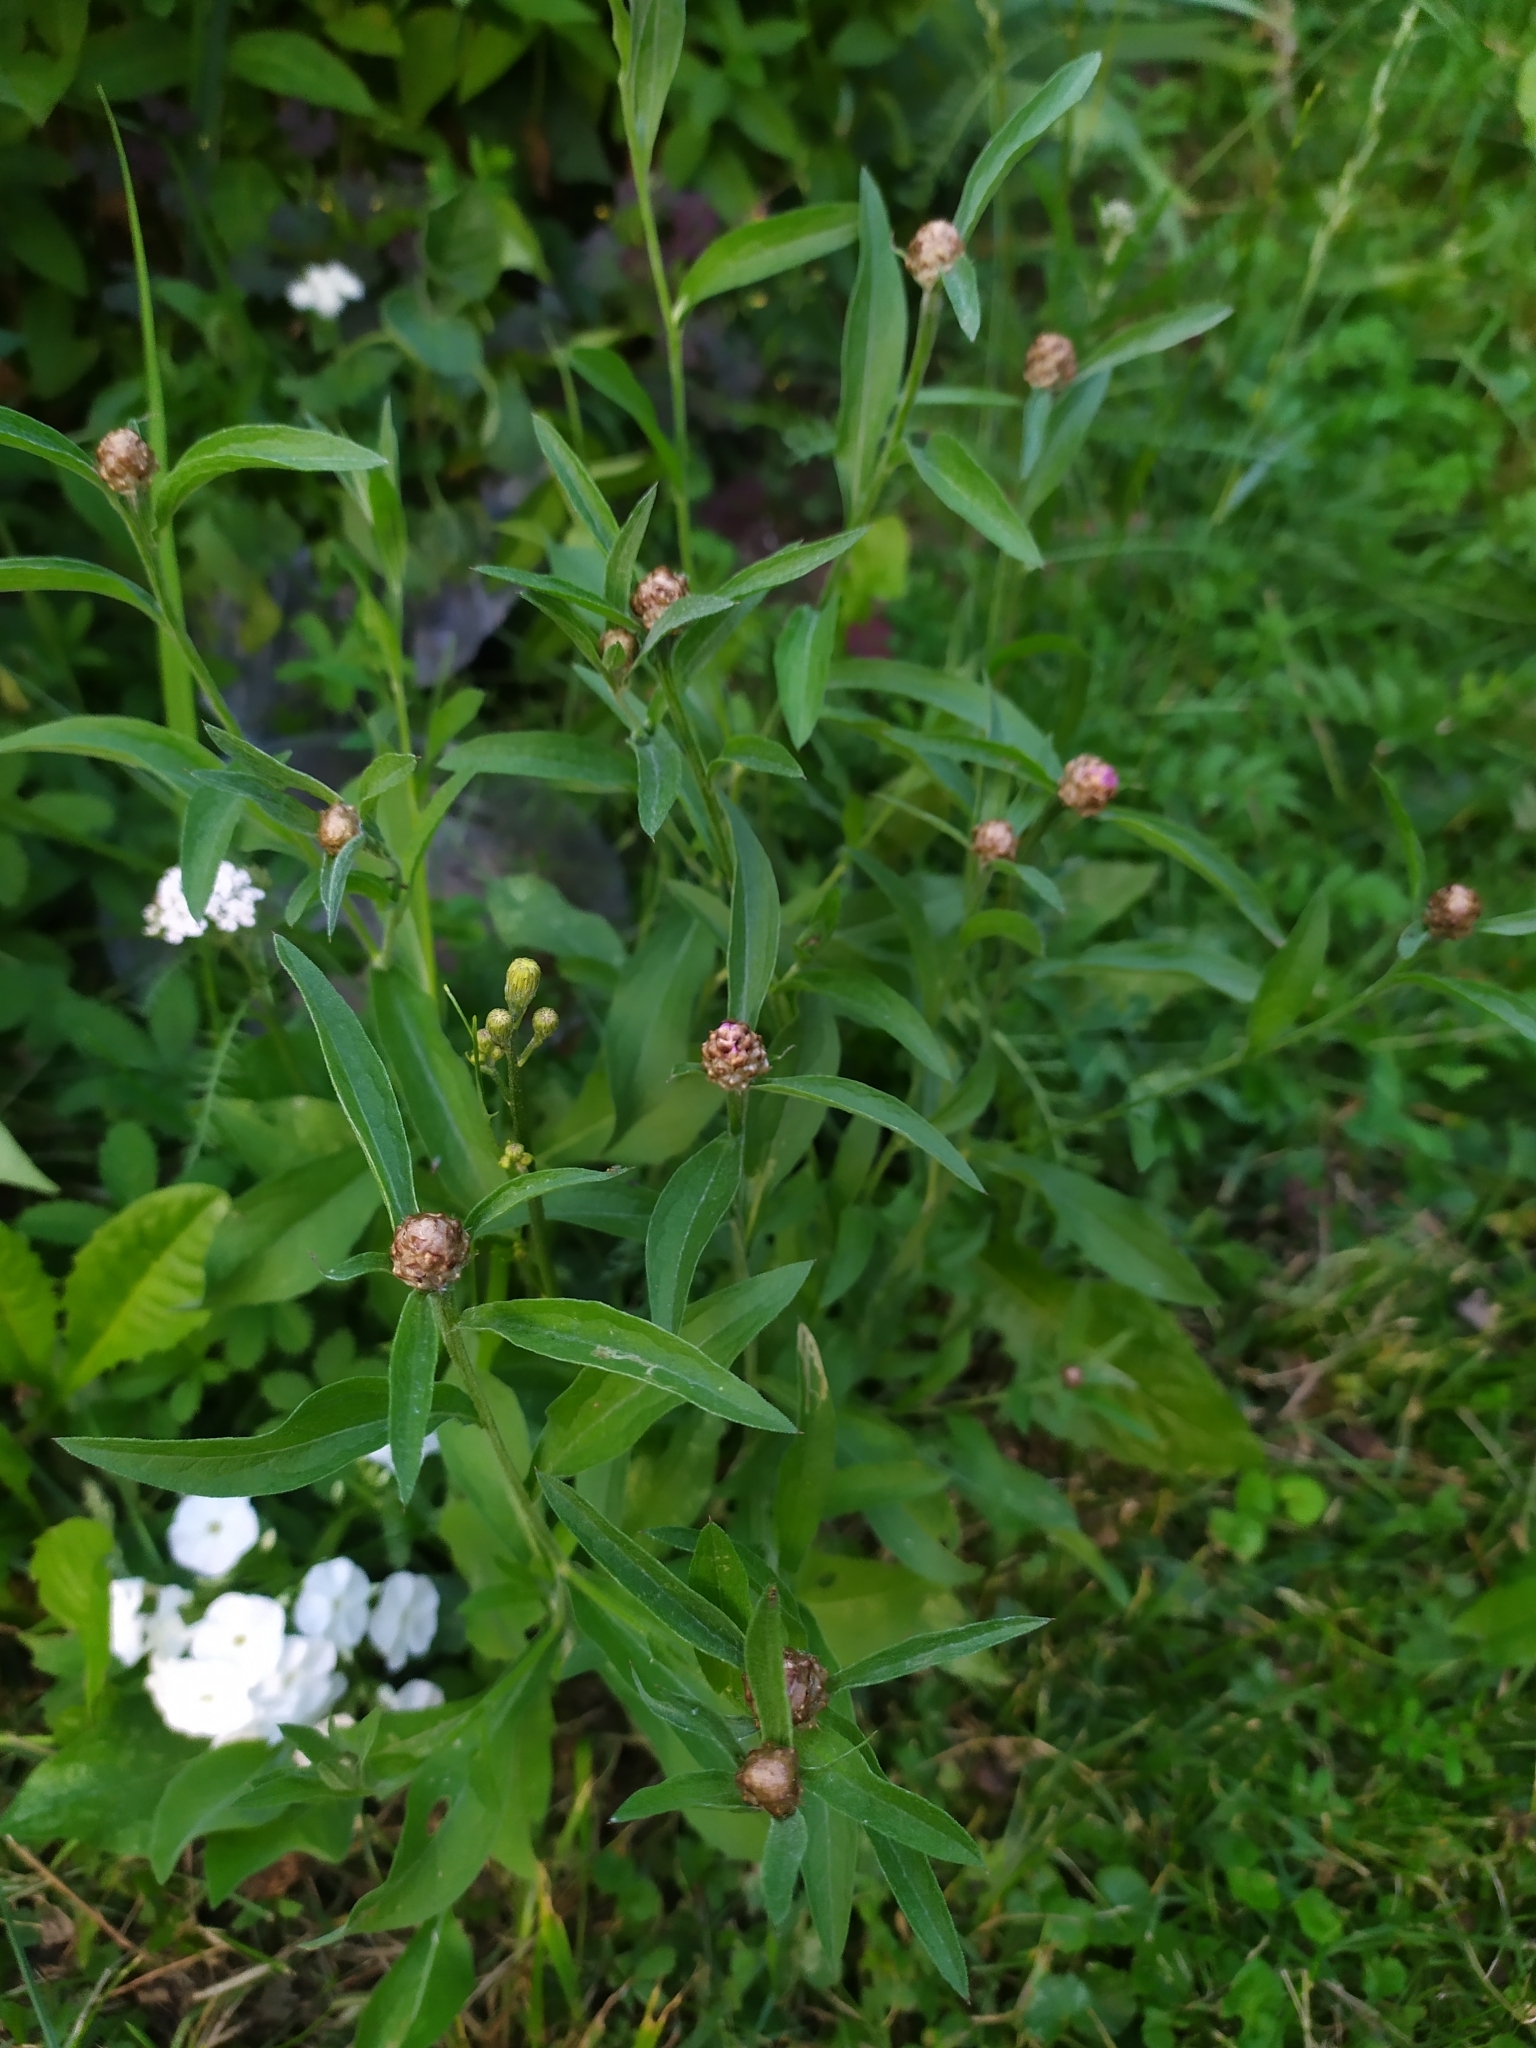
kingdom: Plantae
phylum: Tracheophyta
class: Magnoliopsida
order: Asterales
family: Asteraceae
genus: Centaurea
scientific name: Centaurea jacea
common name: Brown knapweed
